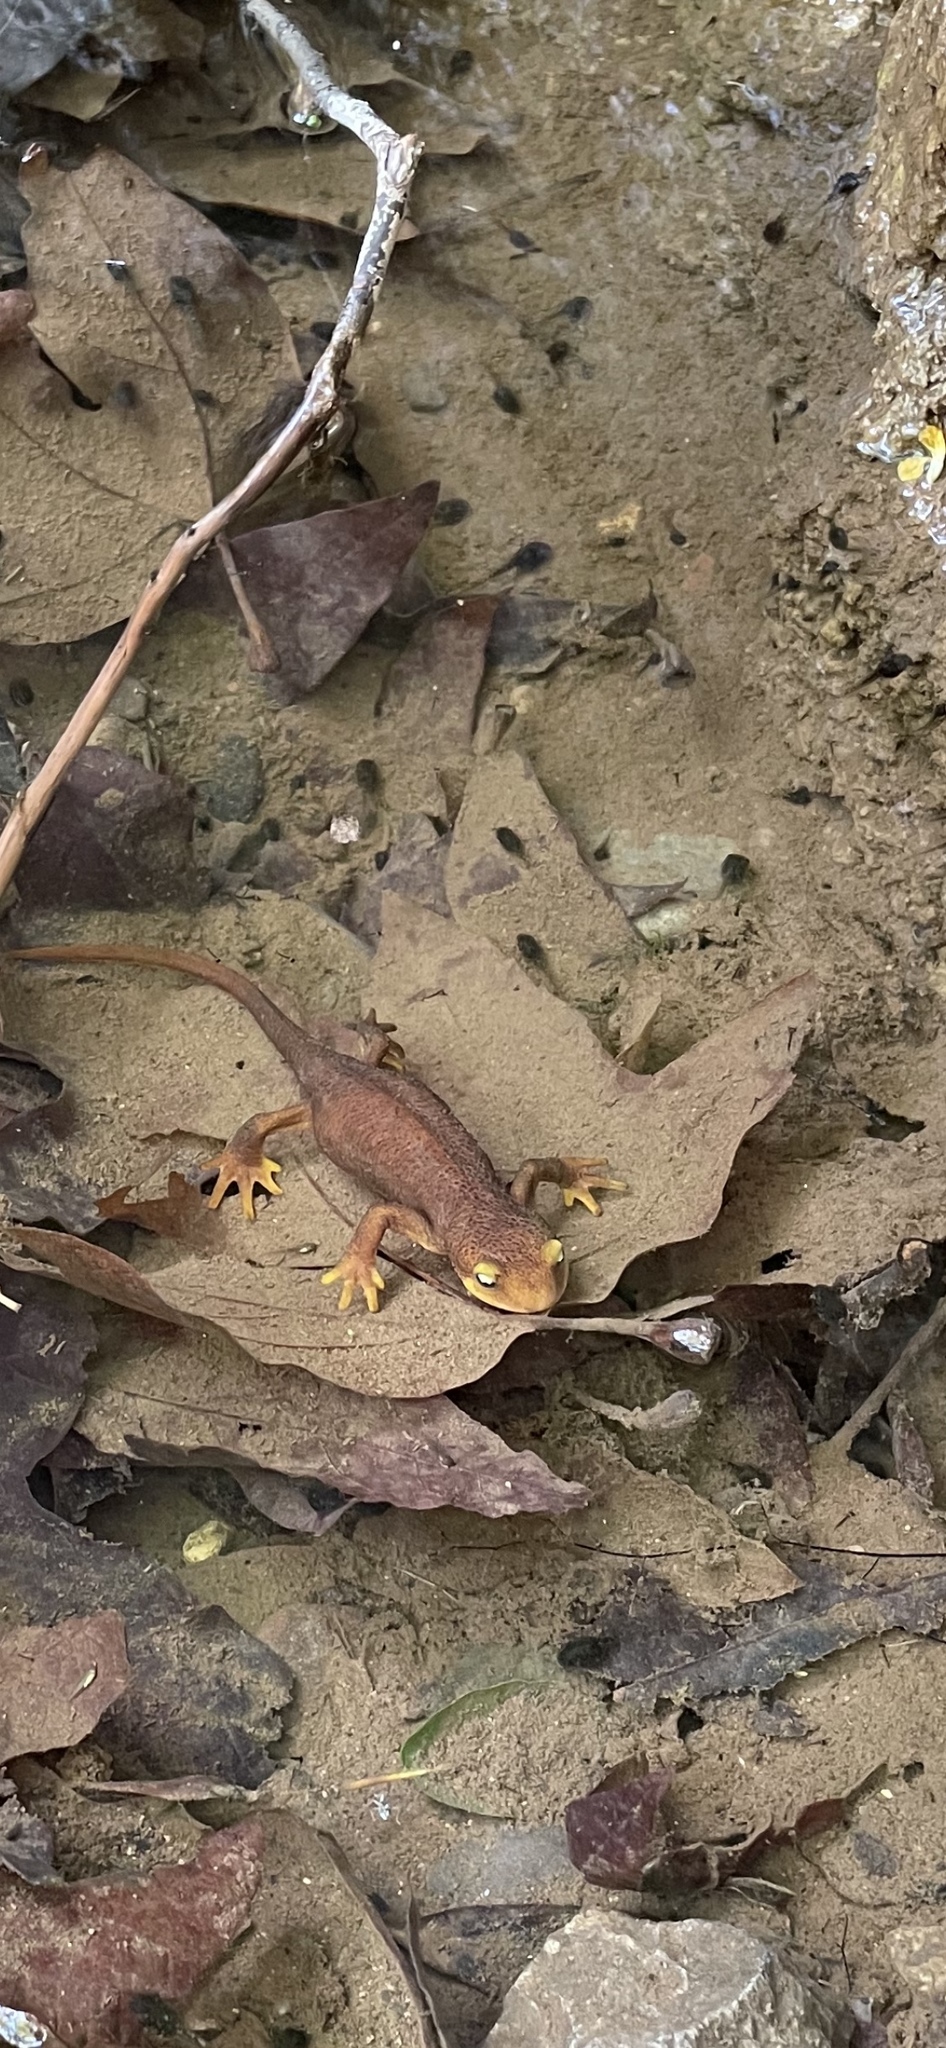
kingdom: Animalia
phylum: Chordata
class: Amphibia
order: Caudata
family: Salamandridae
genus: Taricha
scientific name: Taricha torosa
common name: California newt
